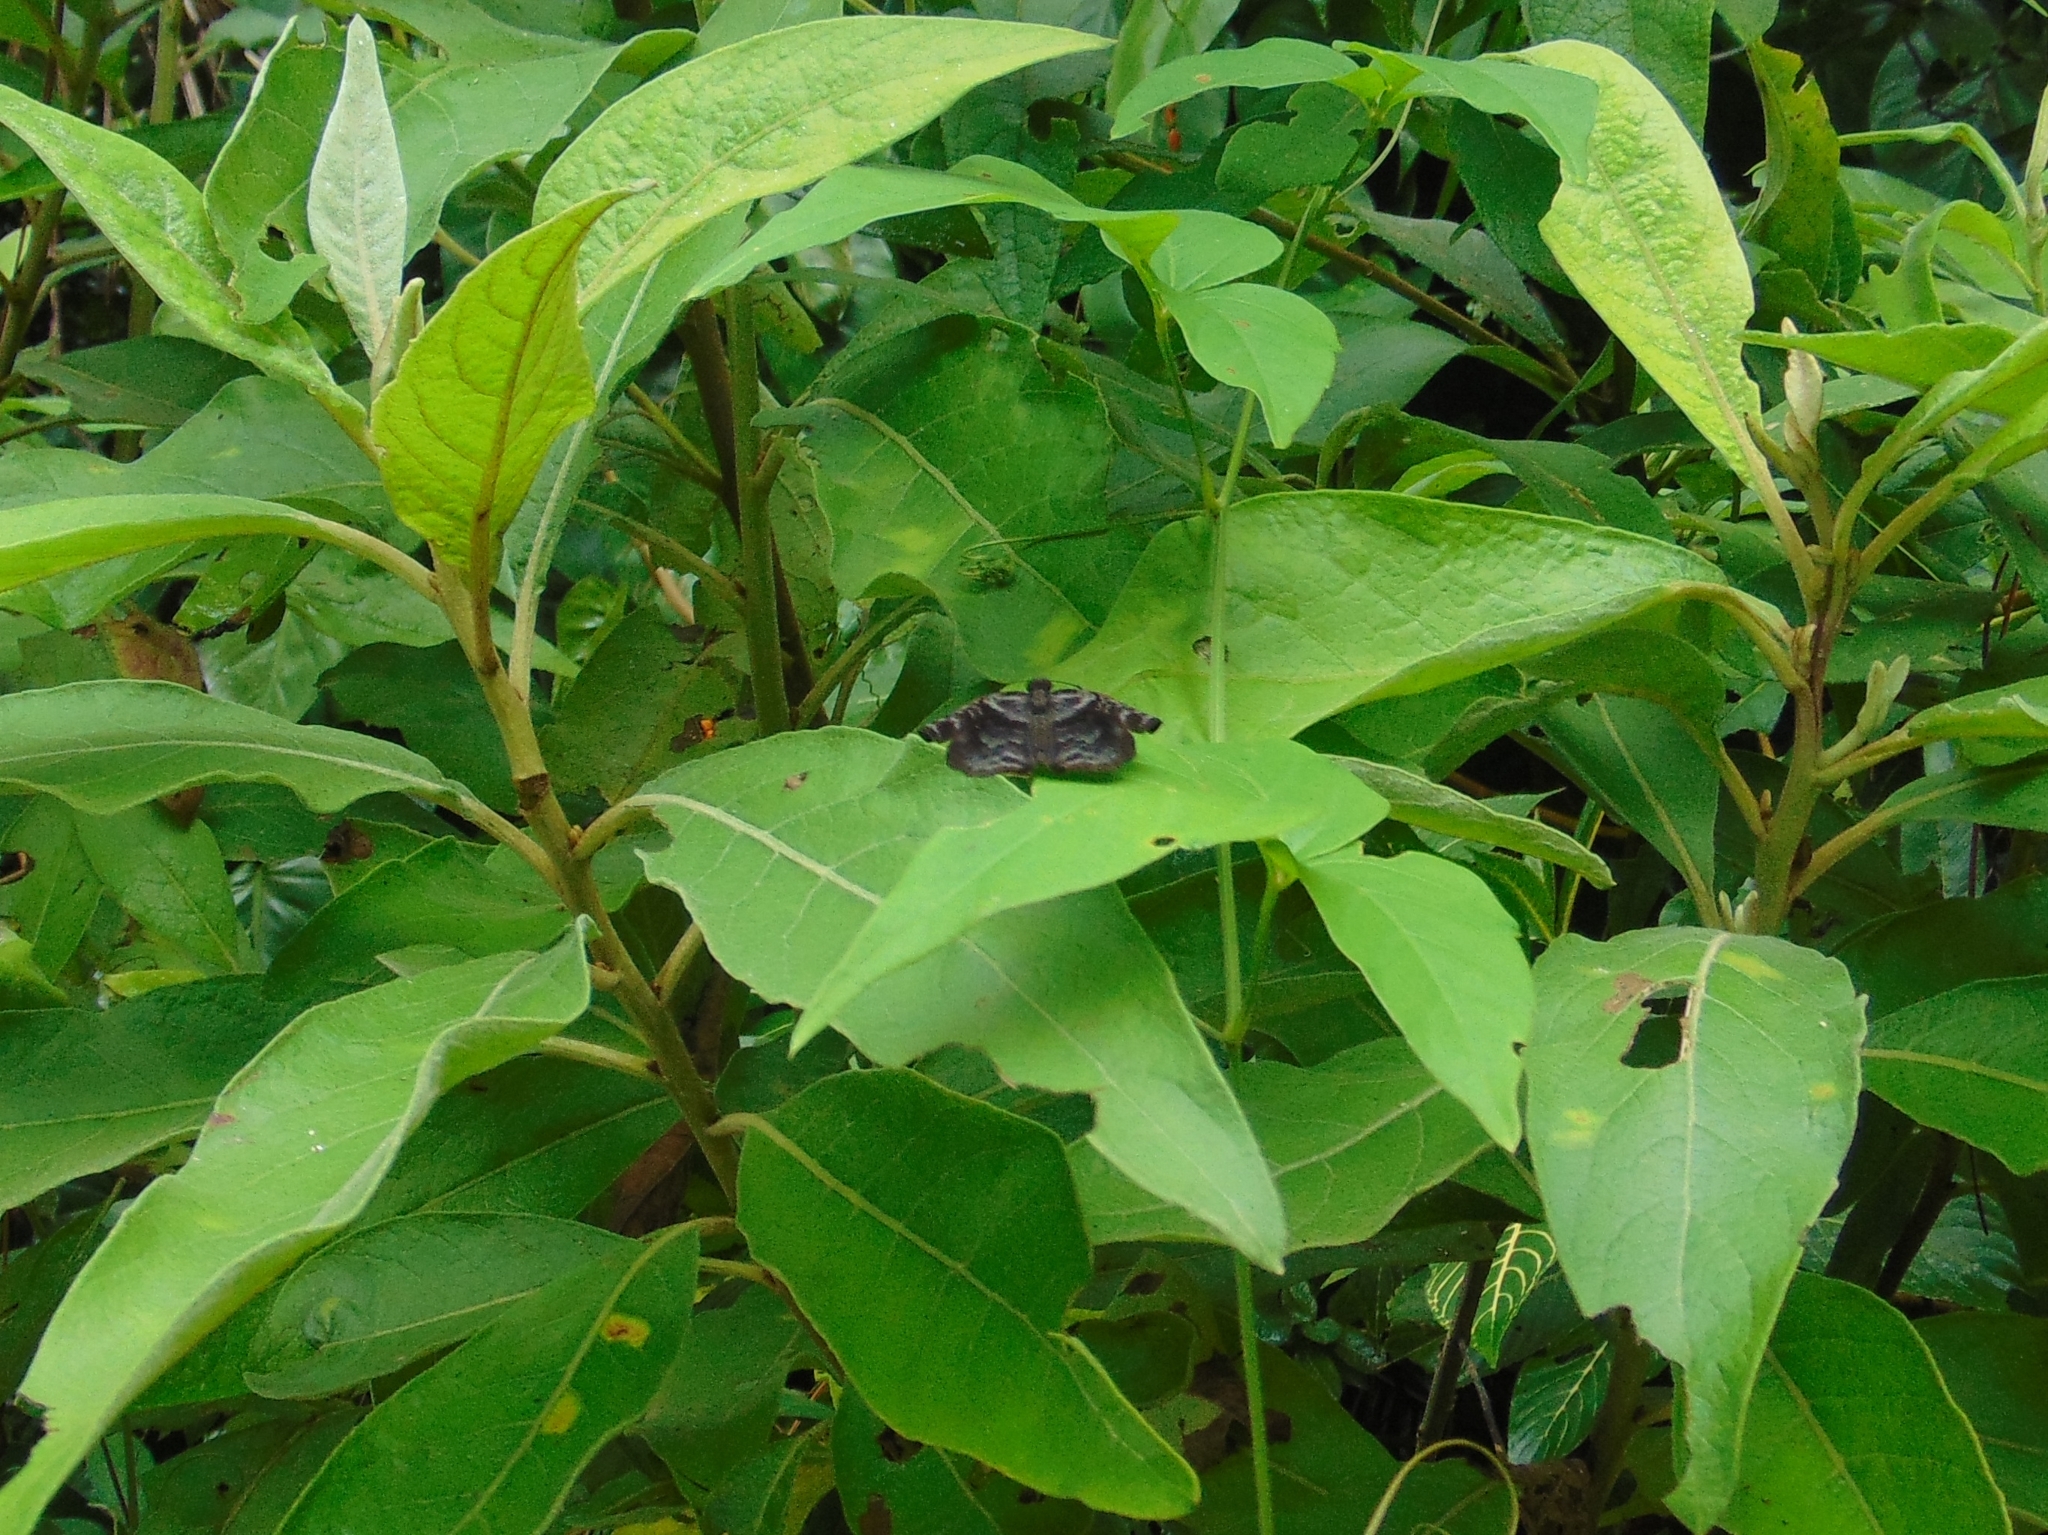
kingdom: Animalia
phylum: Arthropoda
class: Insecta
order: Lepidoptera
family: Hesperiidae
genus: Helias
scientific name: Helias phalaenoides
